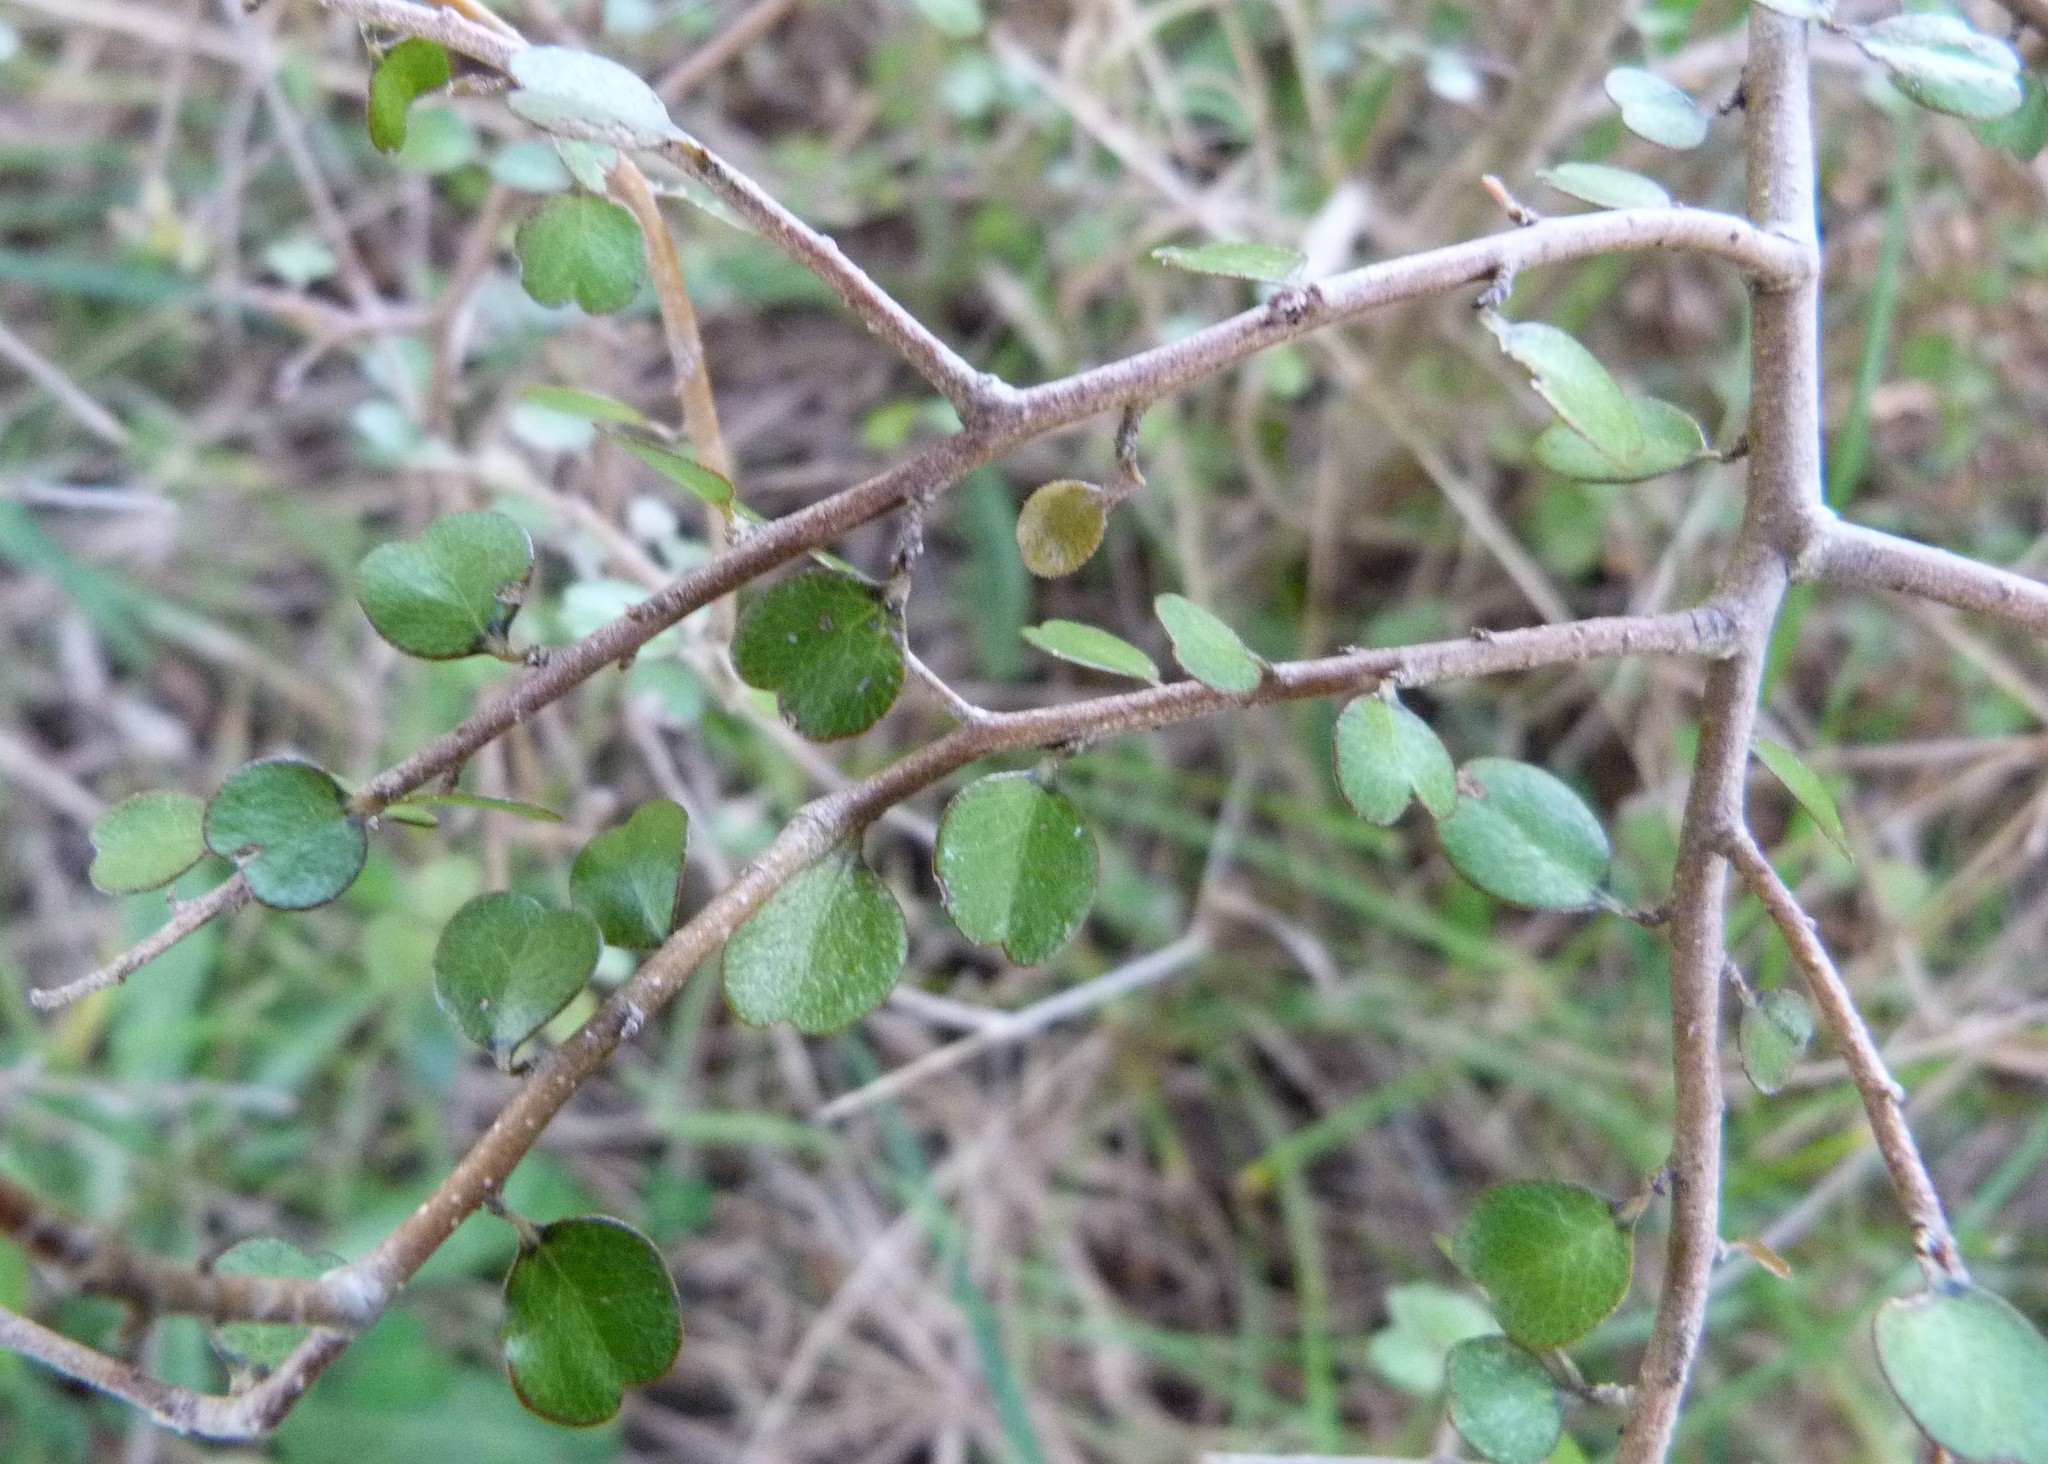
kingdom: Plantae
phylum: Tracheophyta
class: Magnoliopsida
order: Ericales
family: Primulaceae
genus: Myrsine
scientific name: Myrsine divaricata
